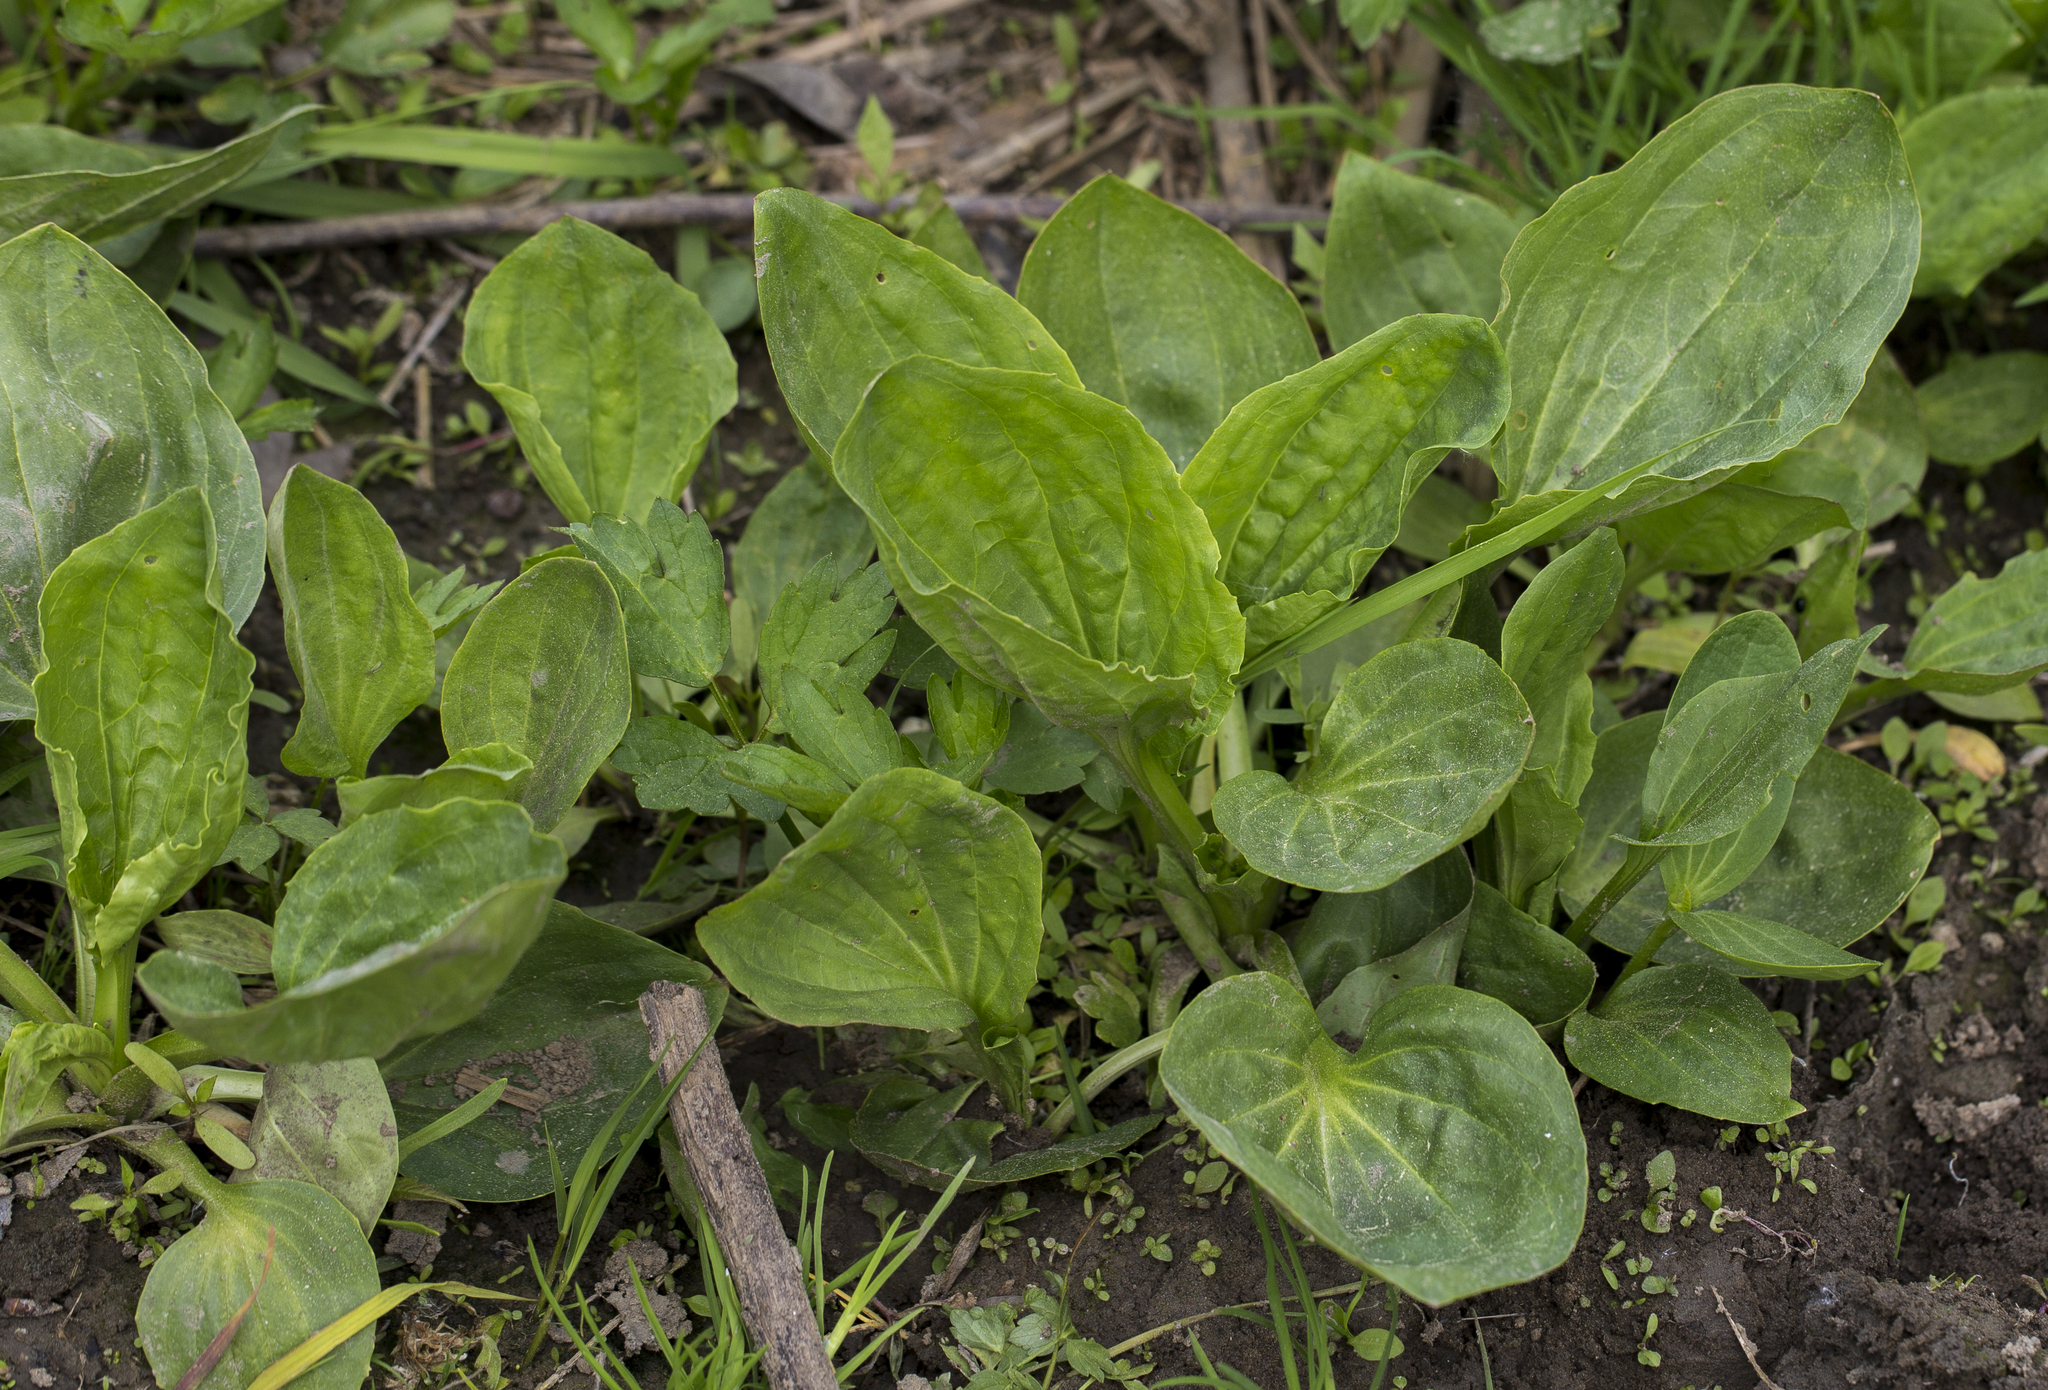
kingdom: Plantae
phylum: Tracheophyta
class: Magnoliopsida
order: Lamiales
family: Plantaginaceae
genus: Plantago
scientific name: Plantago major
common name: Common plantain
